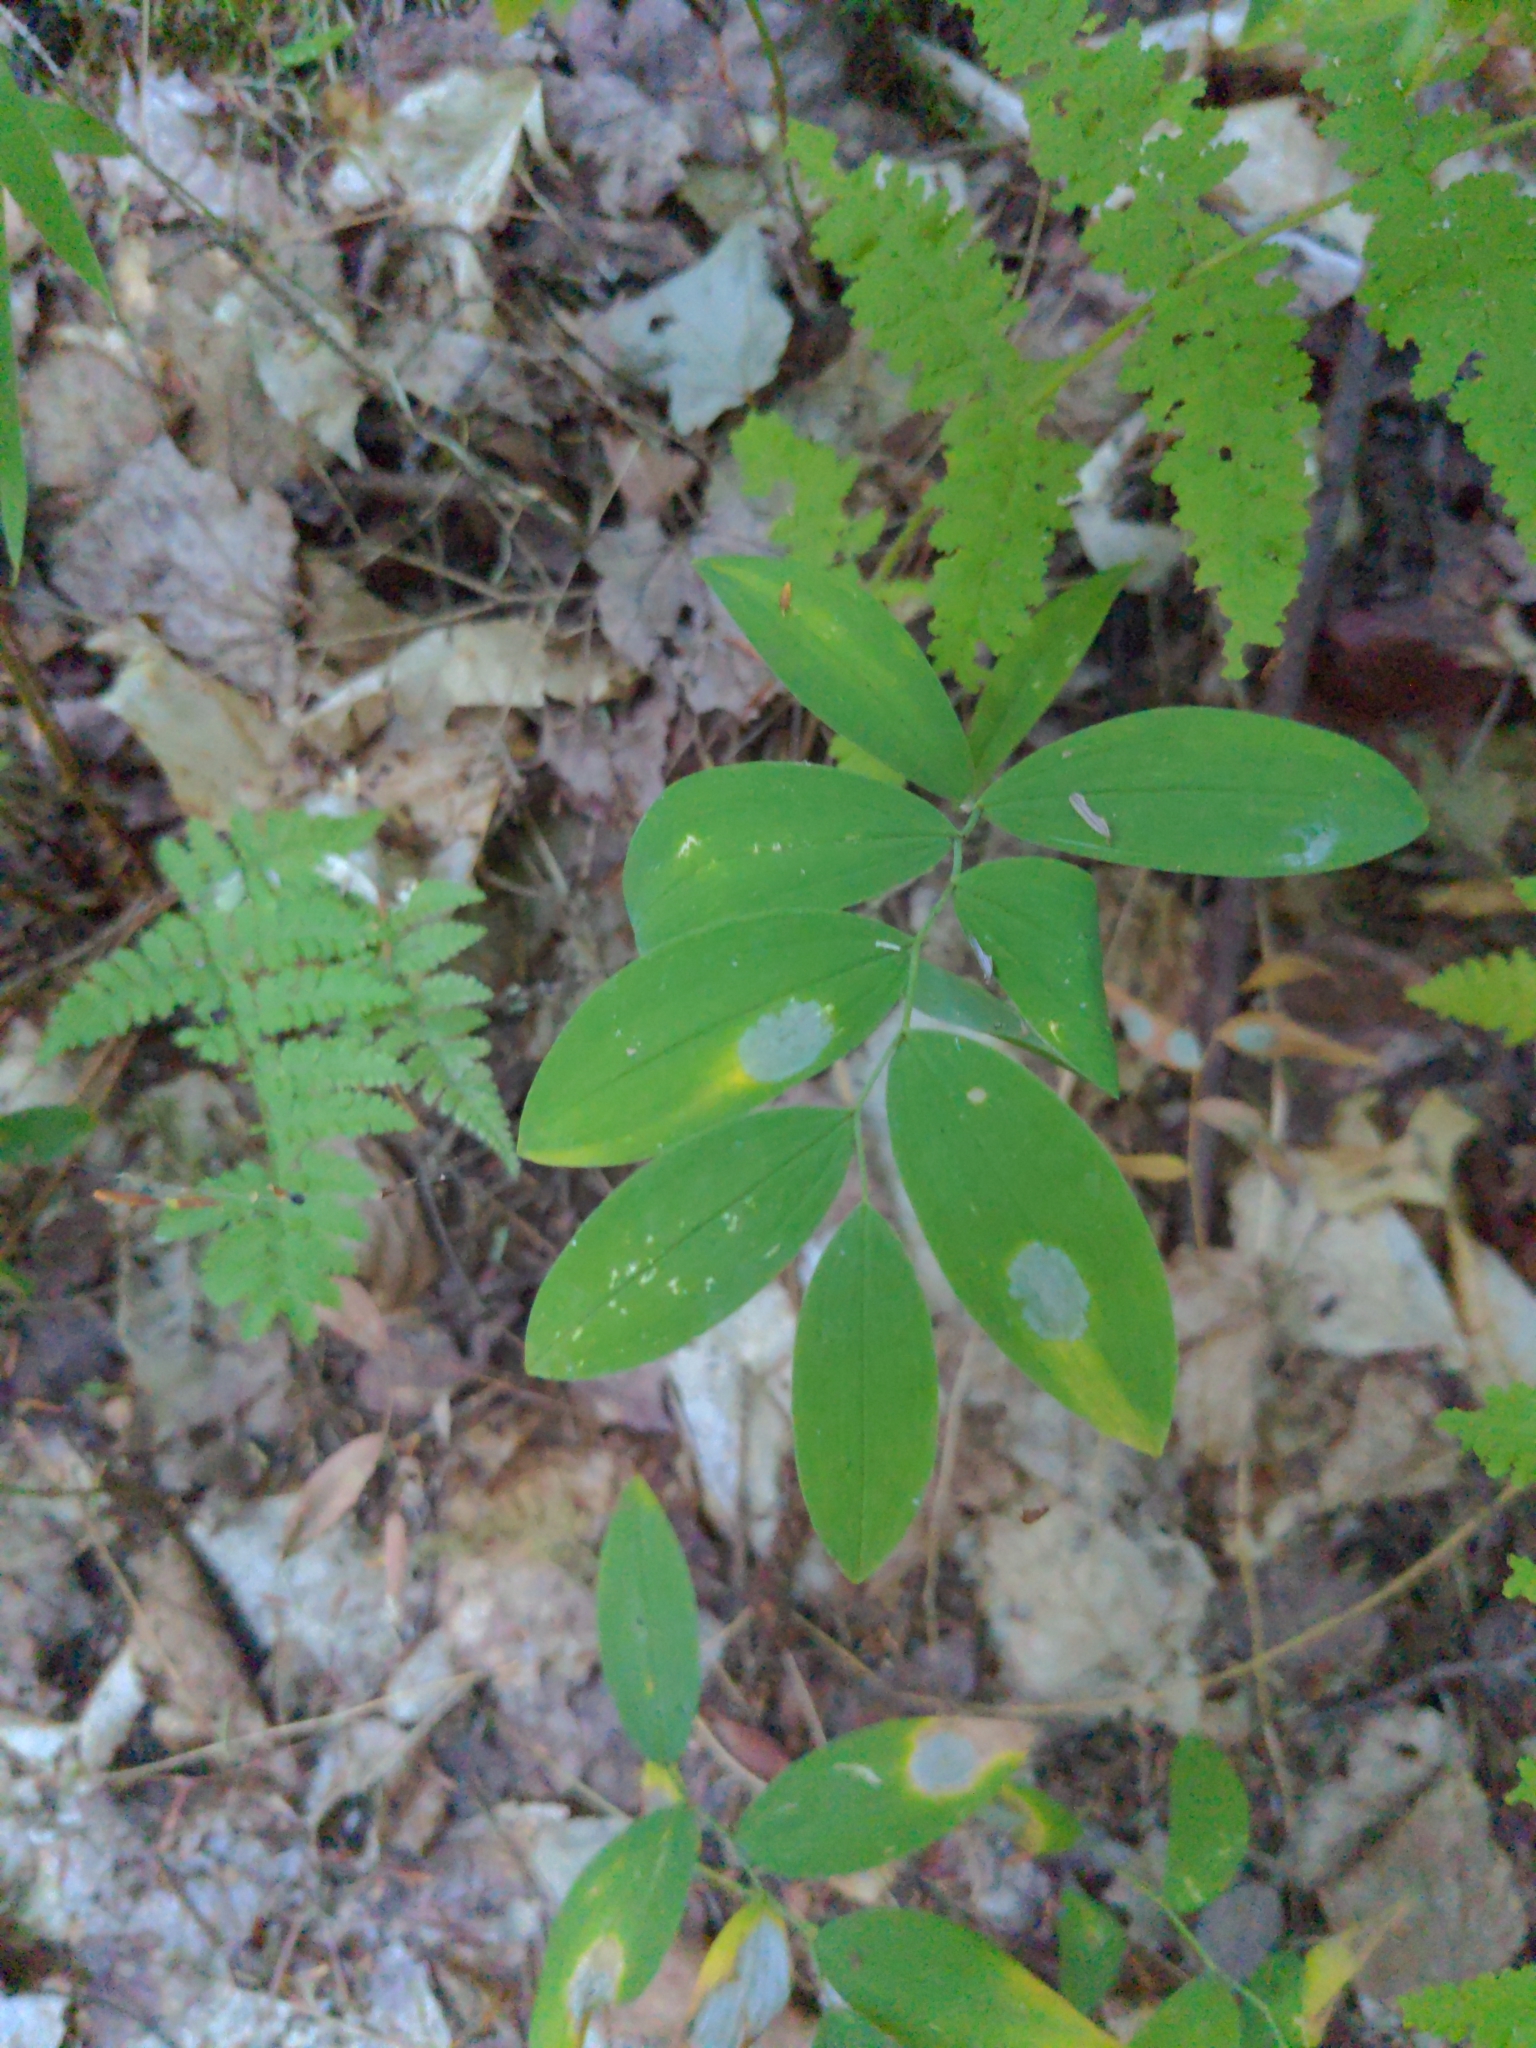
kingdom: Plantae
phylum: Tracheophyta
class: Liliopsida
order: Liliales
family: Colchicaceae
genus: Uvularia
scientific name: Uvularia sessilifolia
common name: Straw-lily
